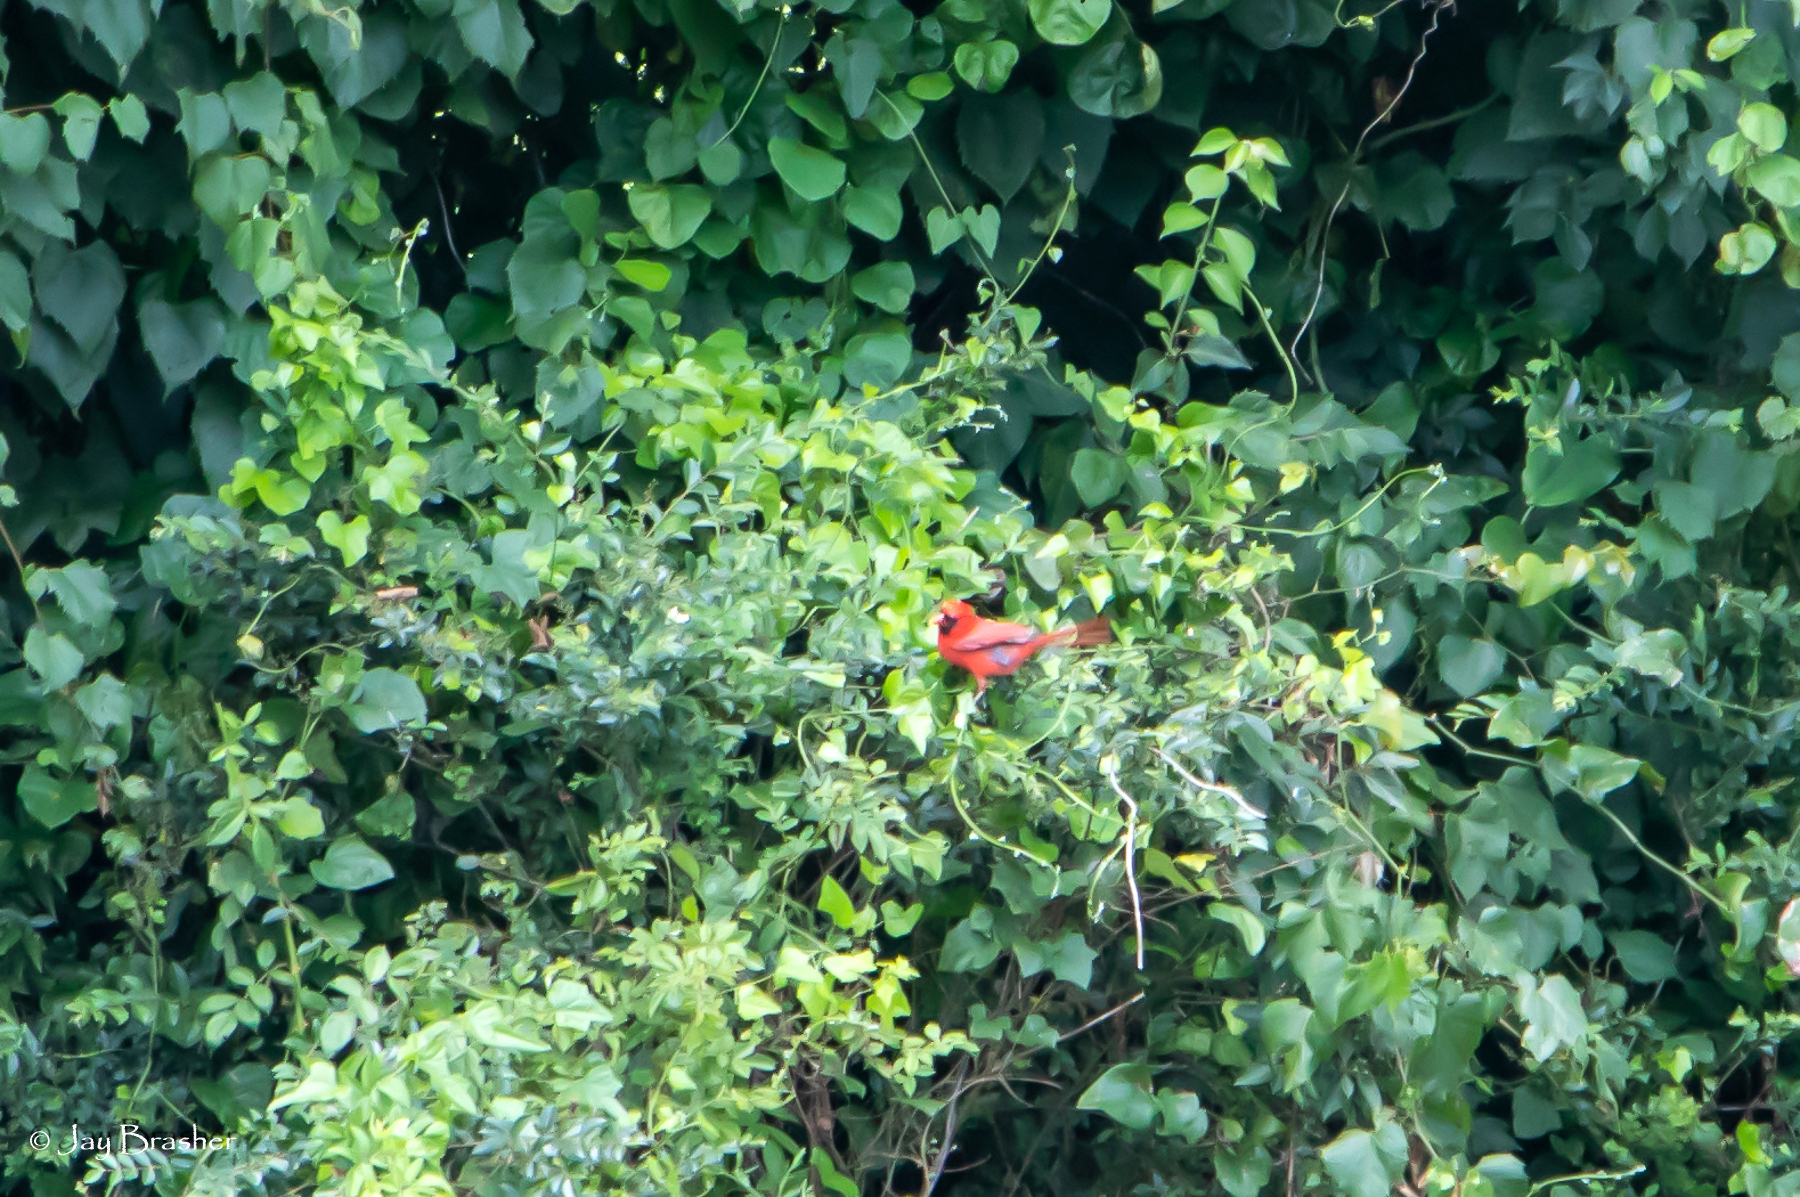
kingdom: Animalia
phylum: Chordata
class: Aves
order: Passeriformes
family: Cardinalidae
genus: Cardinalis
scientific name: Cardinalis cardinalis
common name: Northern cardinal
